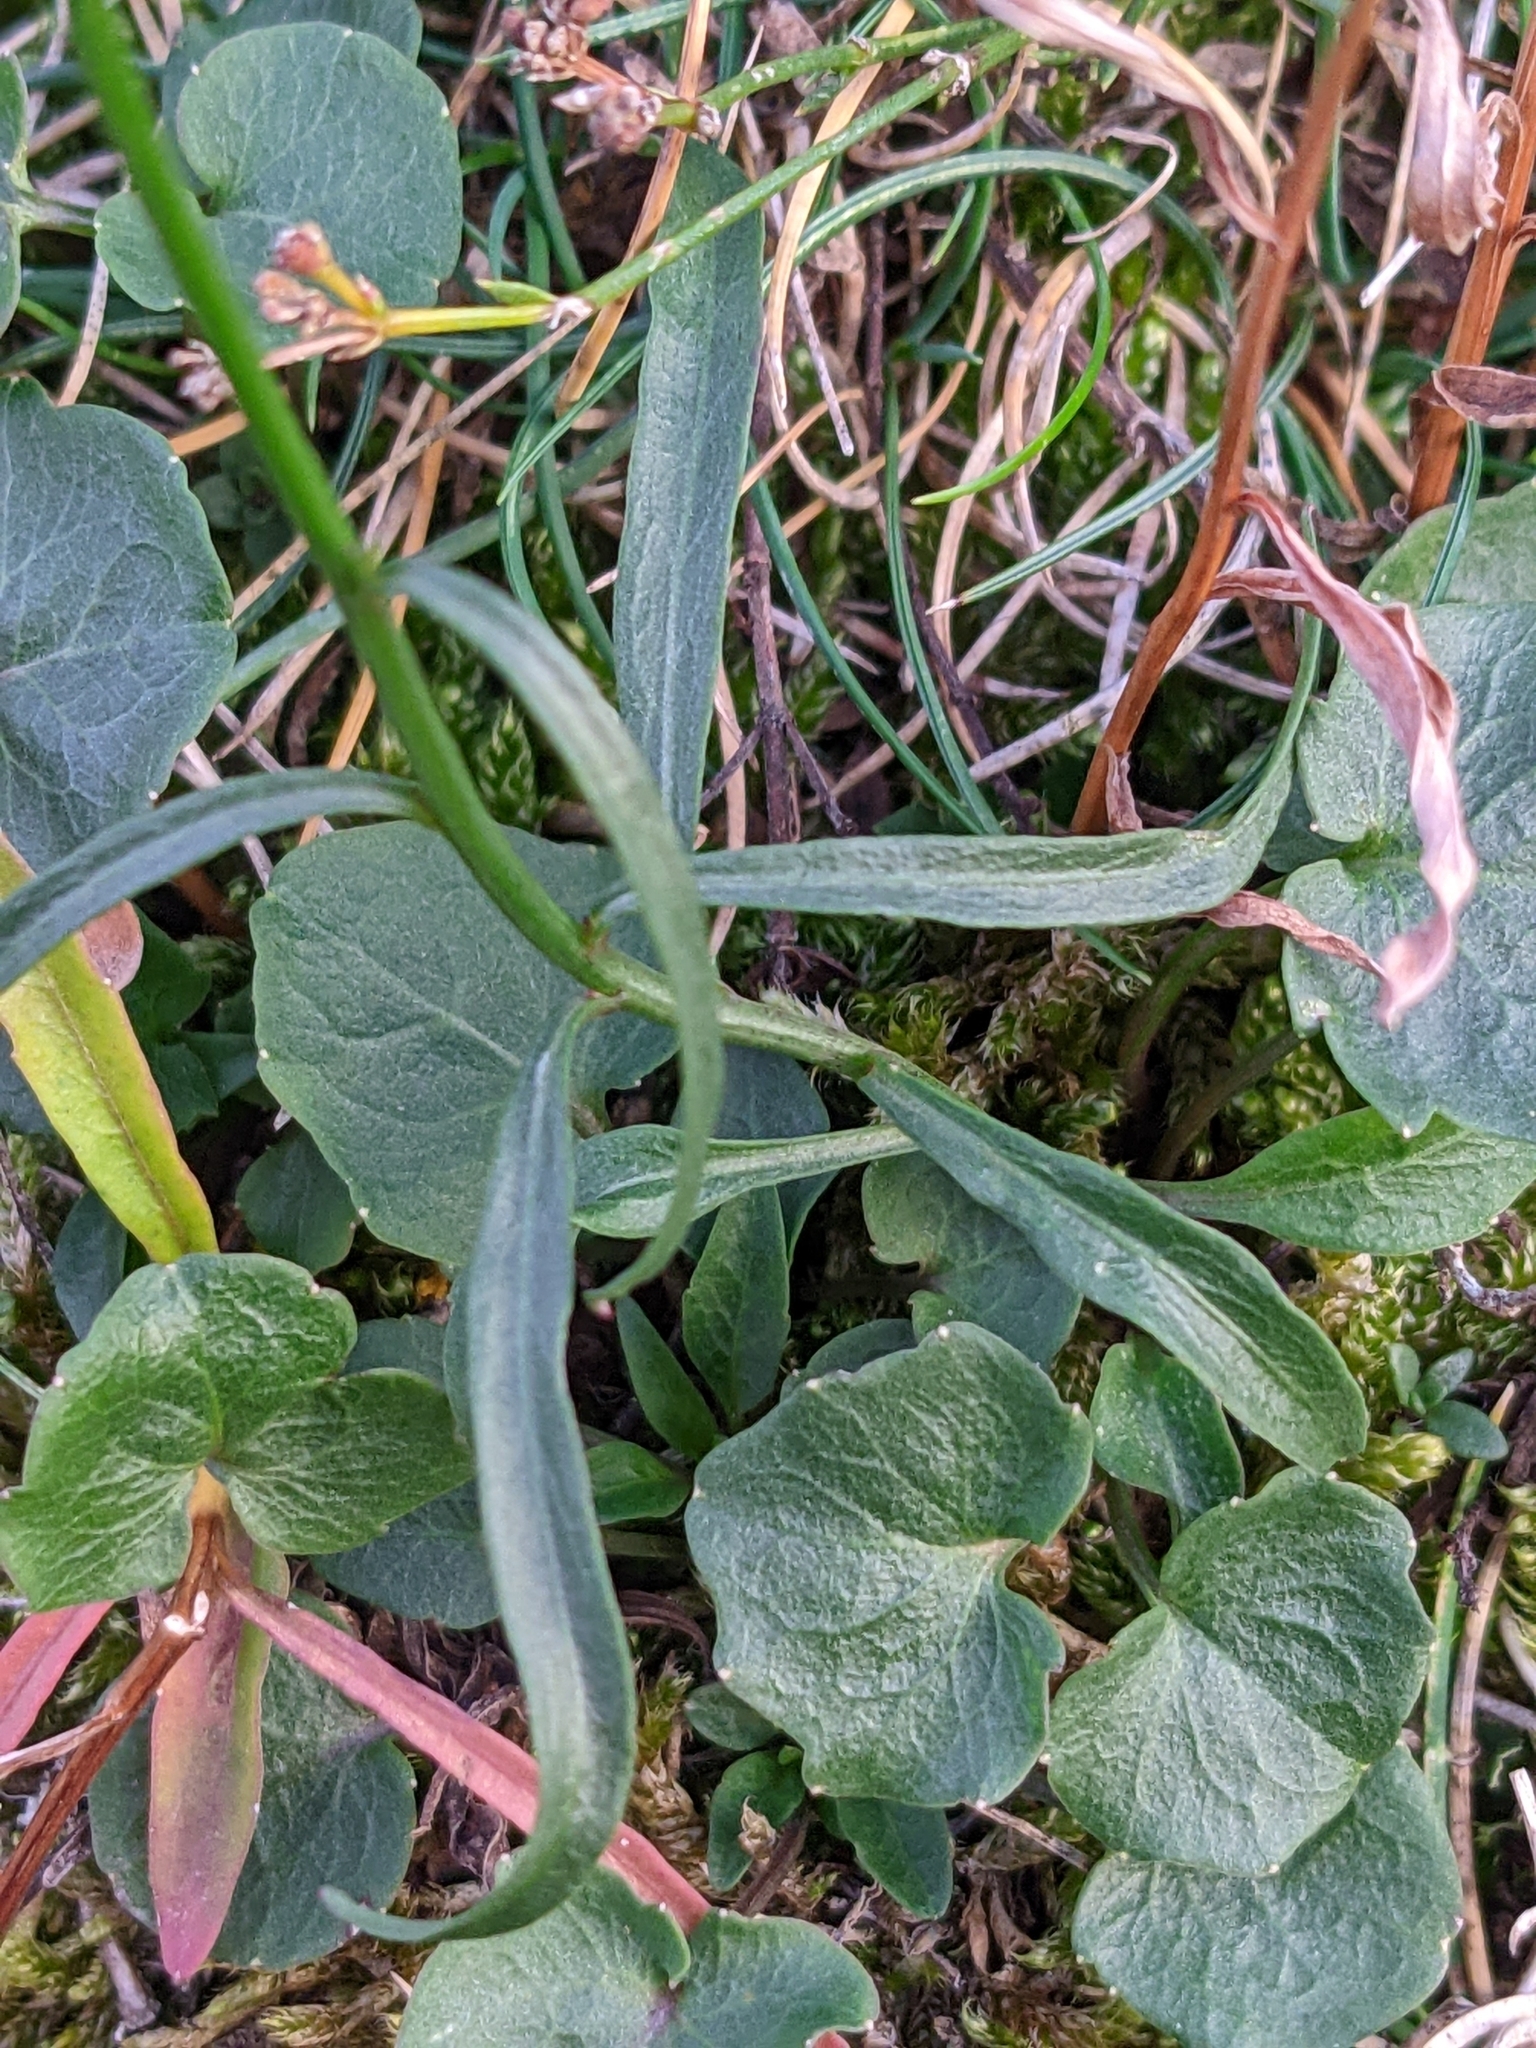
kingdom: Plantae
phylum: Tracheophyta
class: Magnoliopsida
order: Asterales
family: Campanulaceae
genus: Campanula
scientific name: Campanula rotundifolia
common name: Harebell
